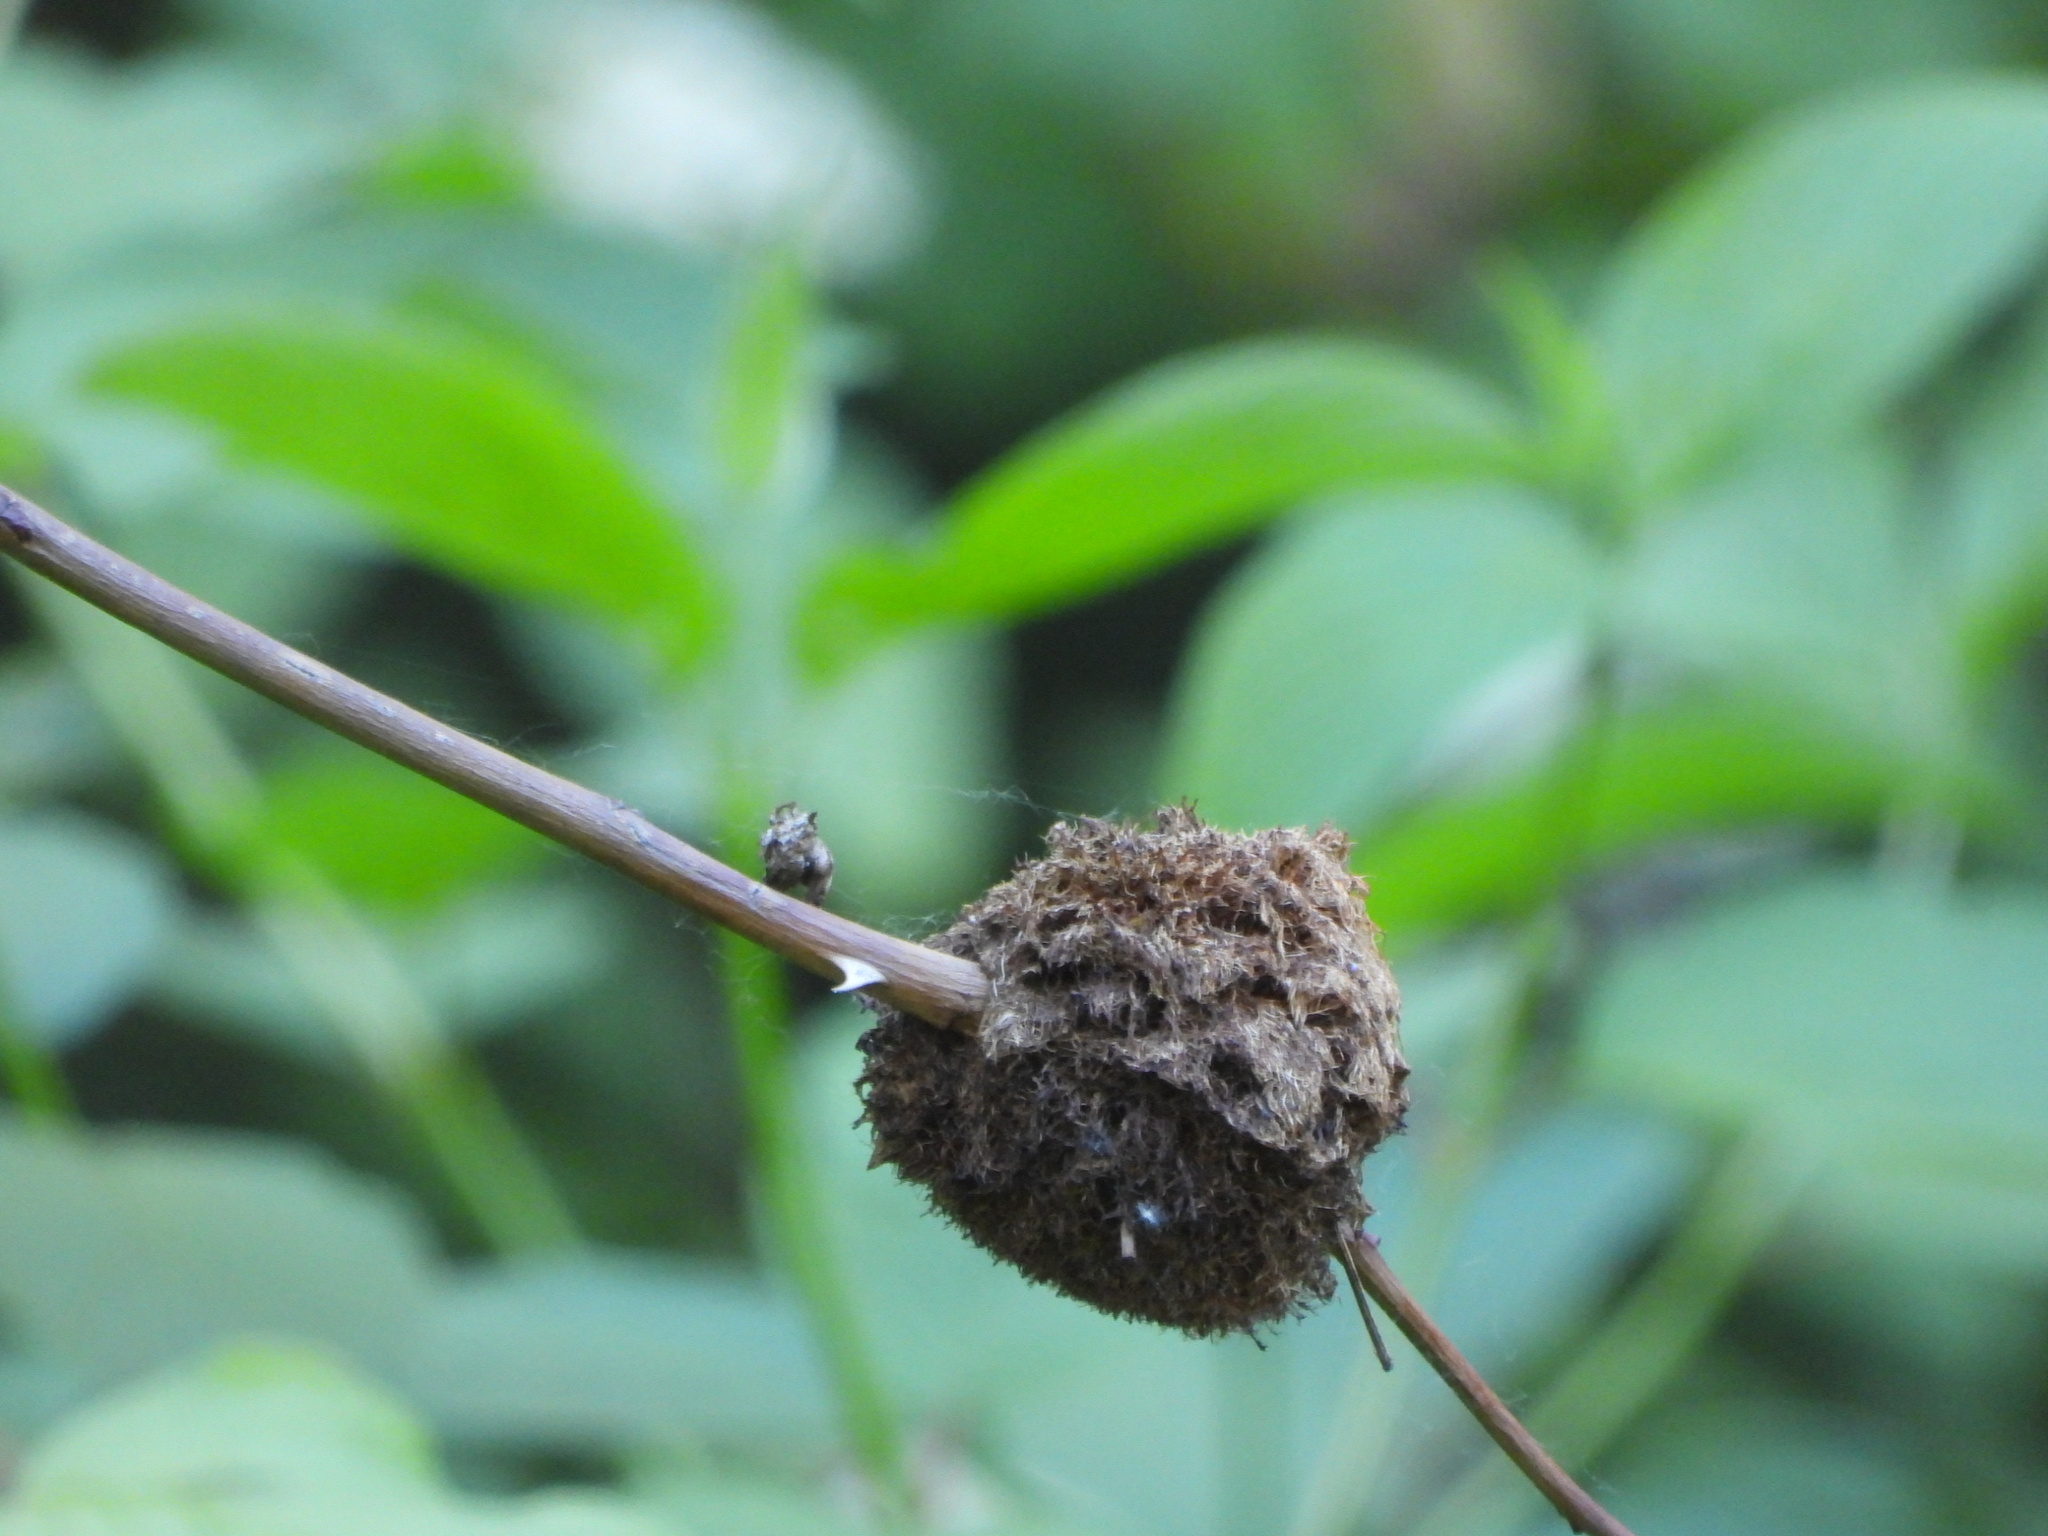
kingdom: Animalia
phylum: Arthropoda
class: Insecta
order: Hymenoptera
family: Cynipidae
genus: Diplolepis
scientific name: Diplolepis rosae
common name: Bedeguar gall
